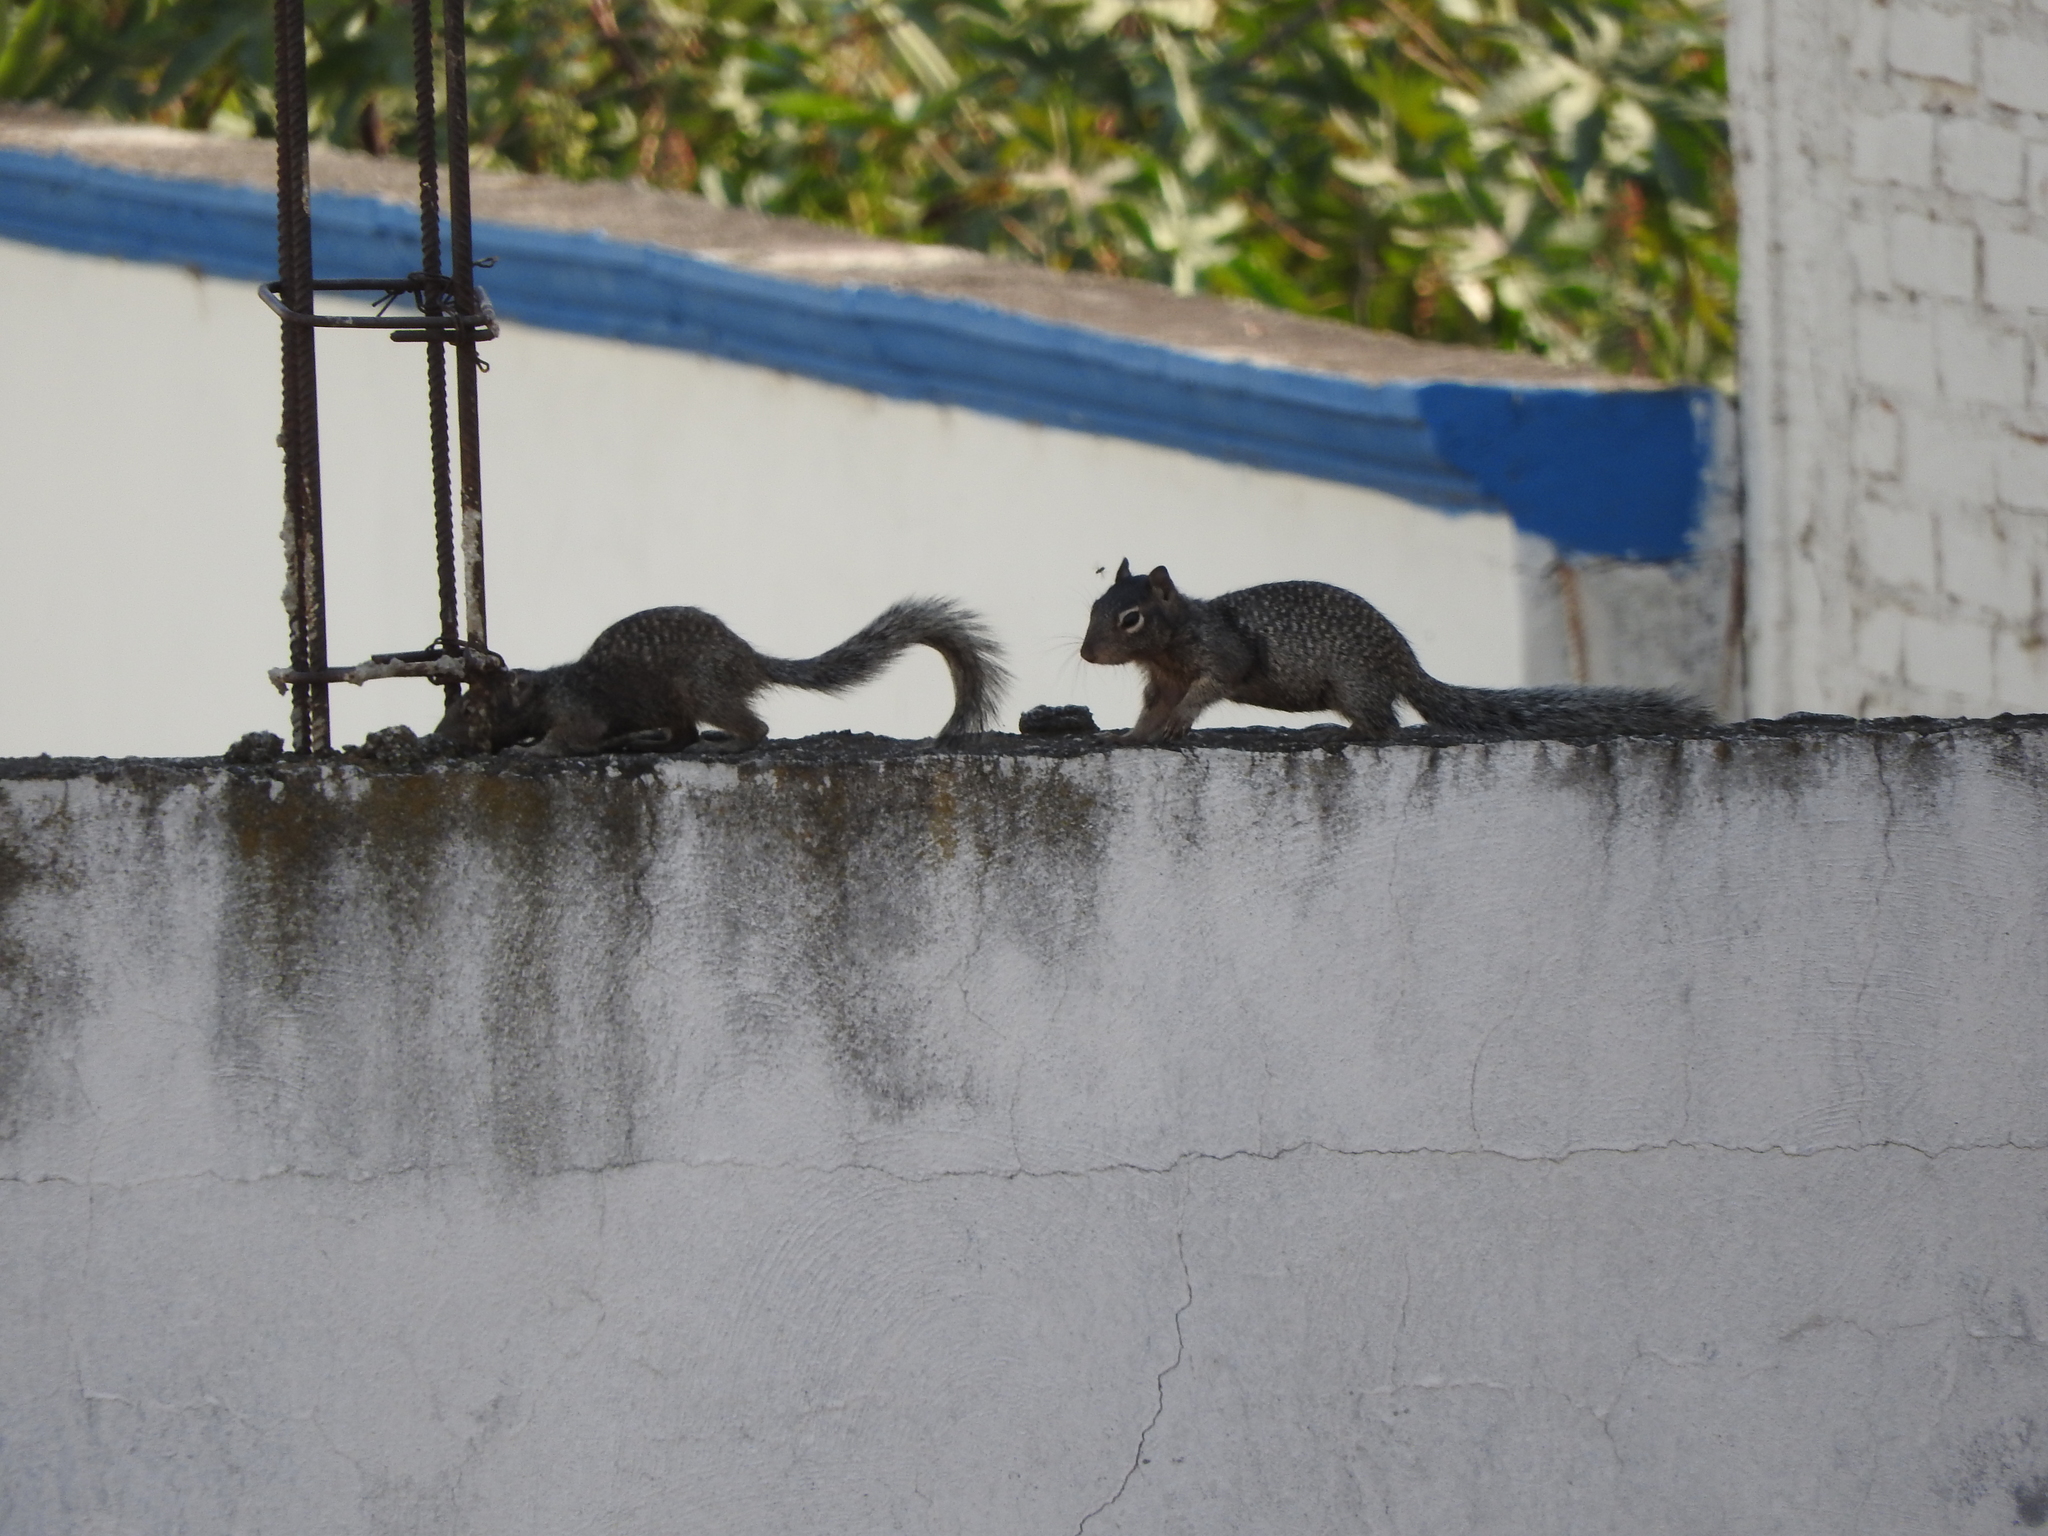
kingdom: Animalia
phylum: Chordata
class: Mammalia
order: Rodentia
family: Sciuridae
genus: Otospermophilus
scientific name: Otospermophilus variegatus
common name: Rock squirrel
